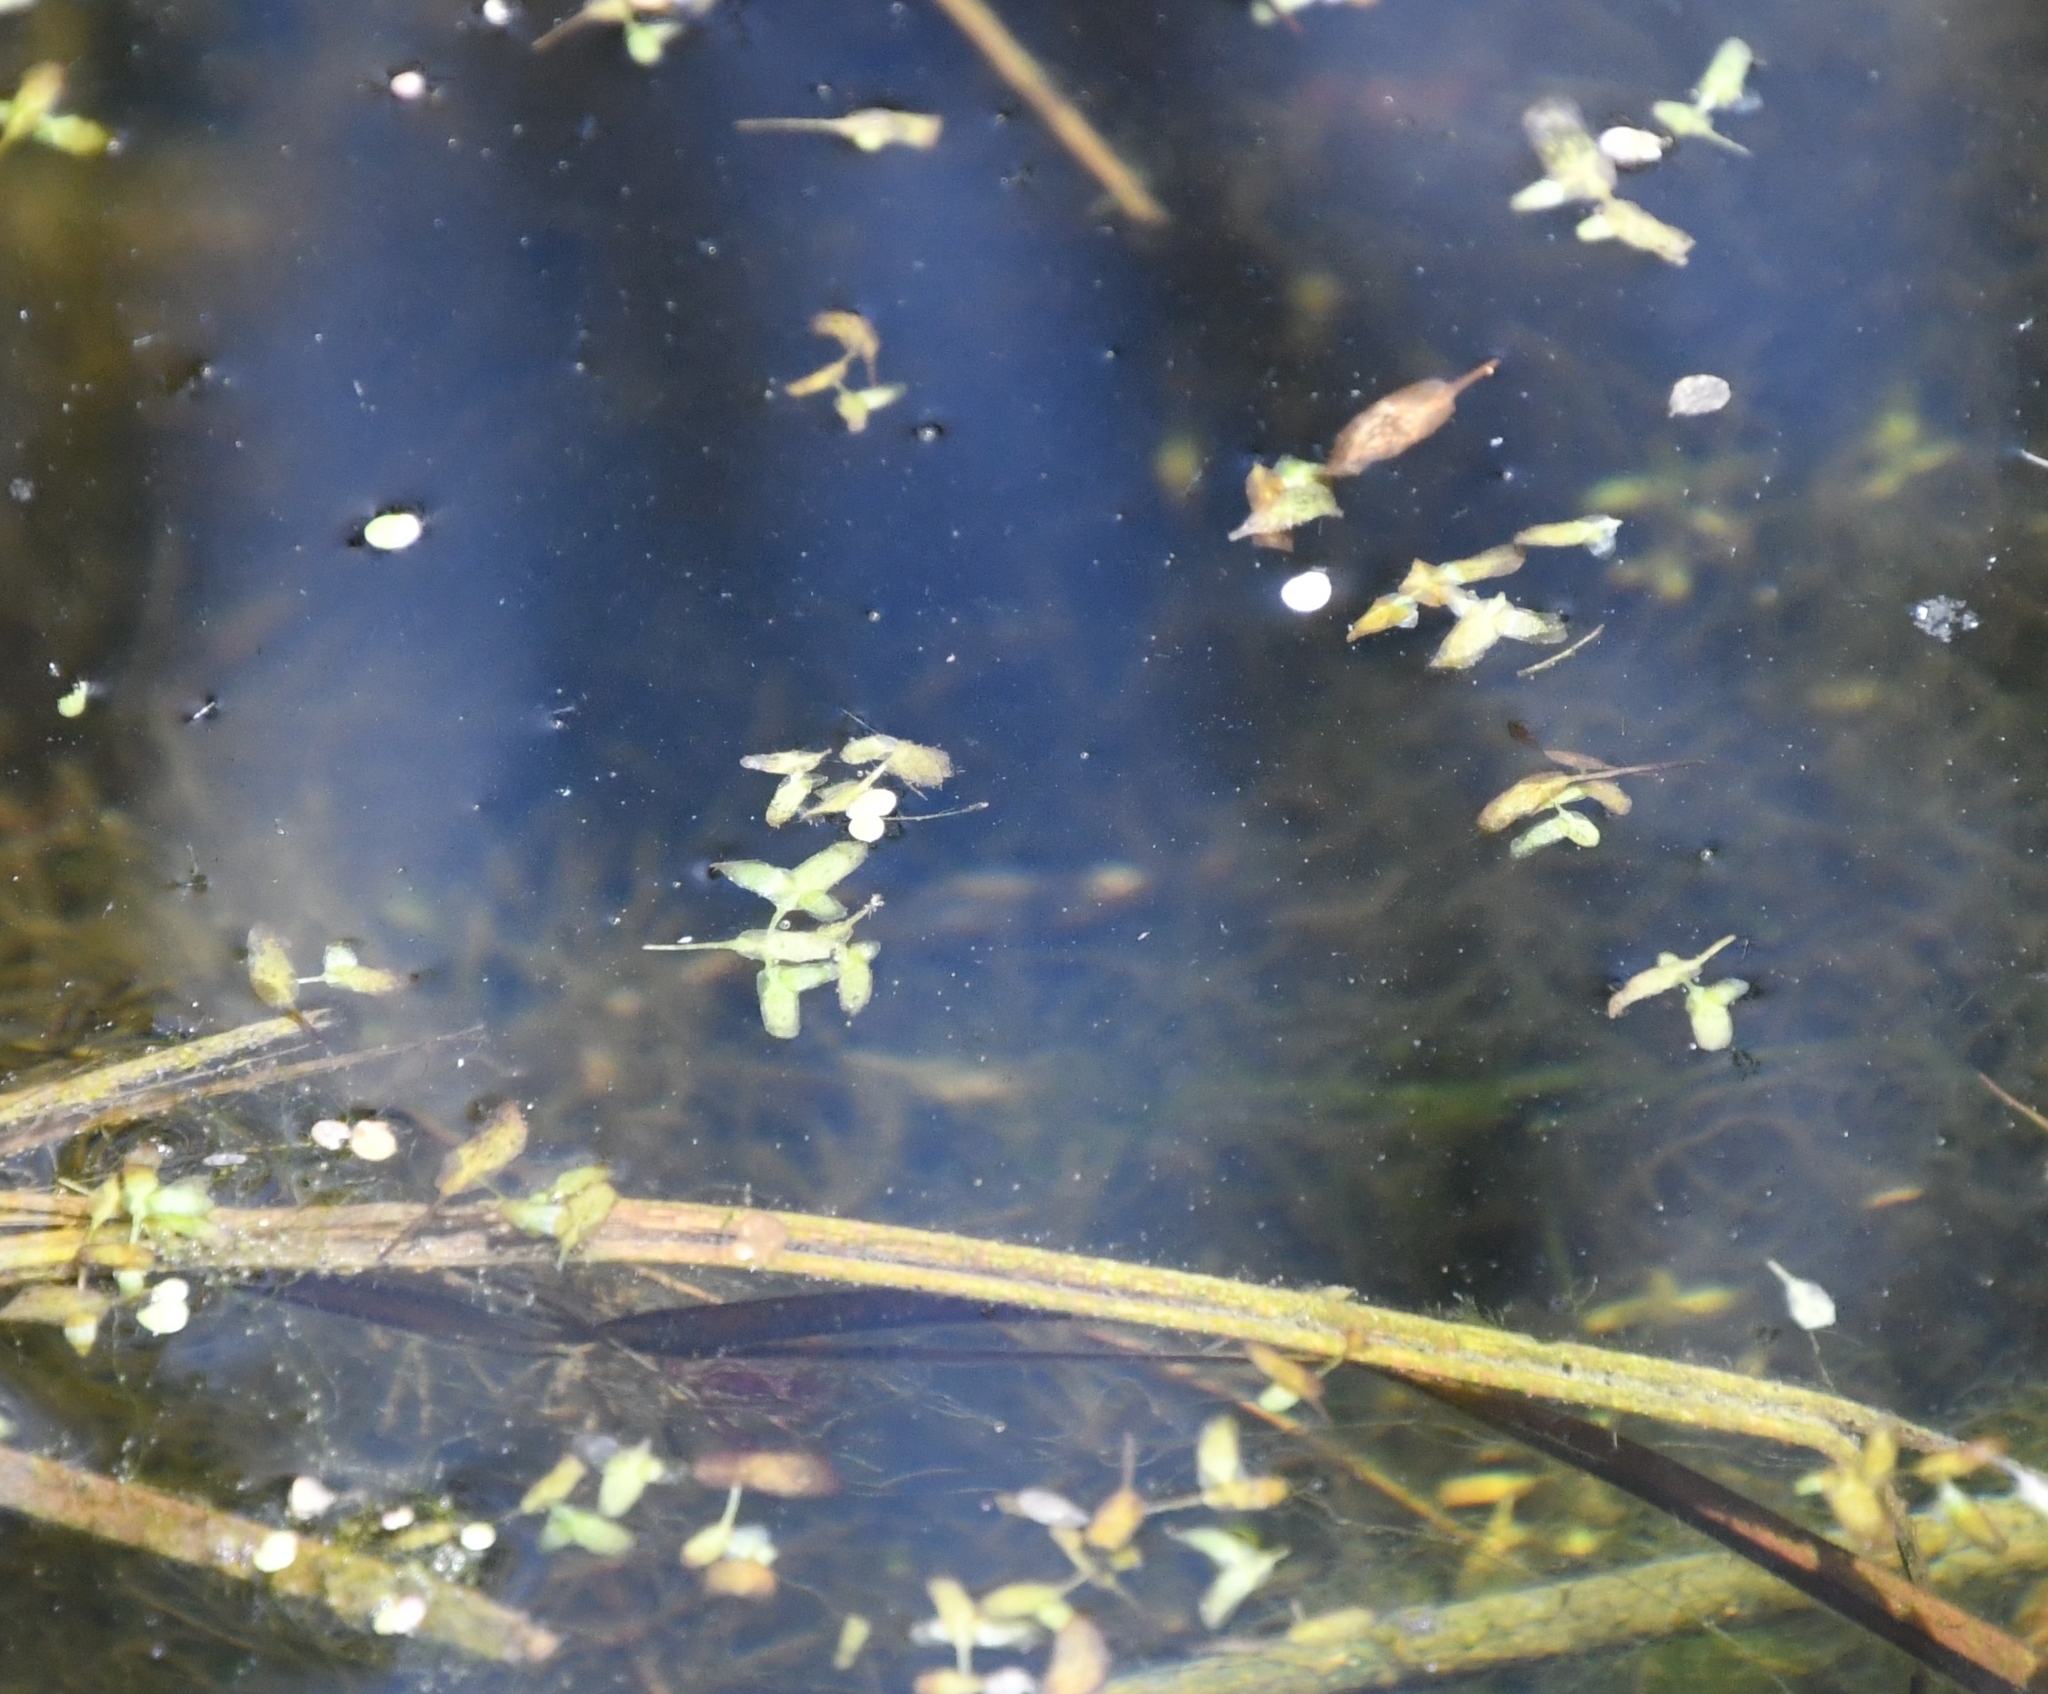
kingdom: Plantae
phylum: Tracheophyta
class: Liliopsida
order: Alismatales
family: Araceae
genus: Lemna
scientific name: Lemna trisulca
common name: Ivy-leaved duckweed
